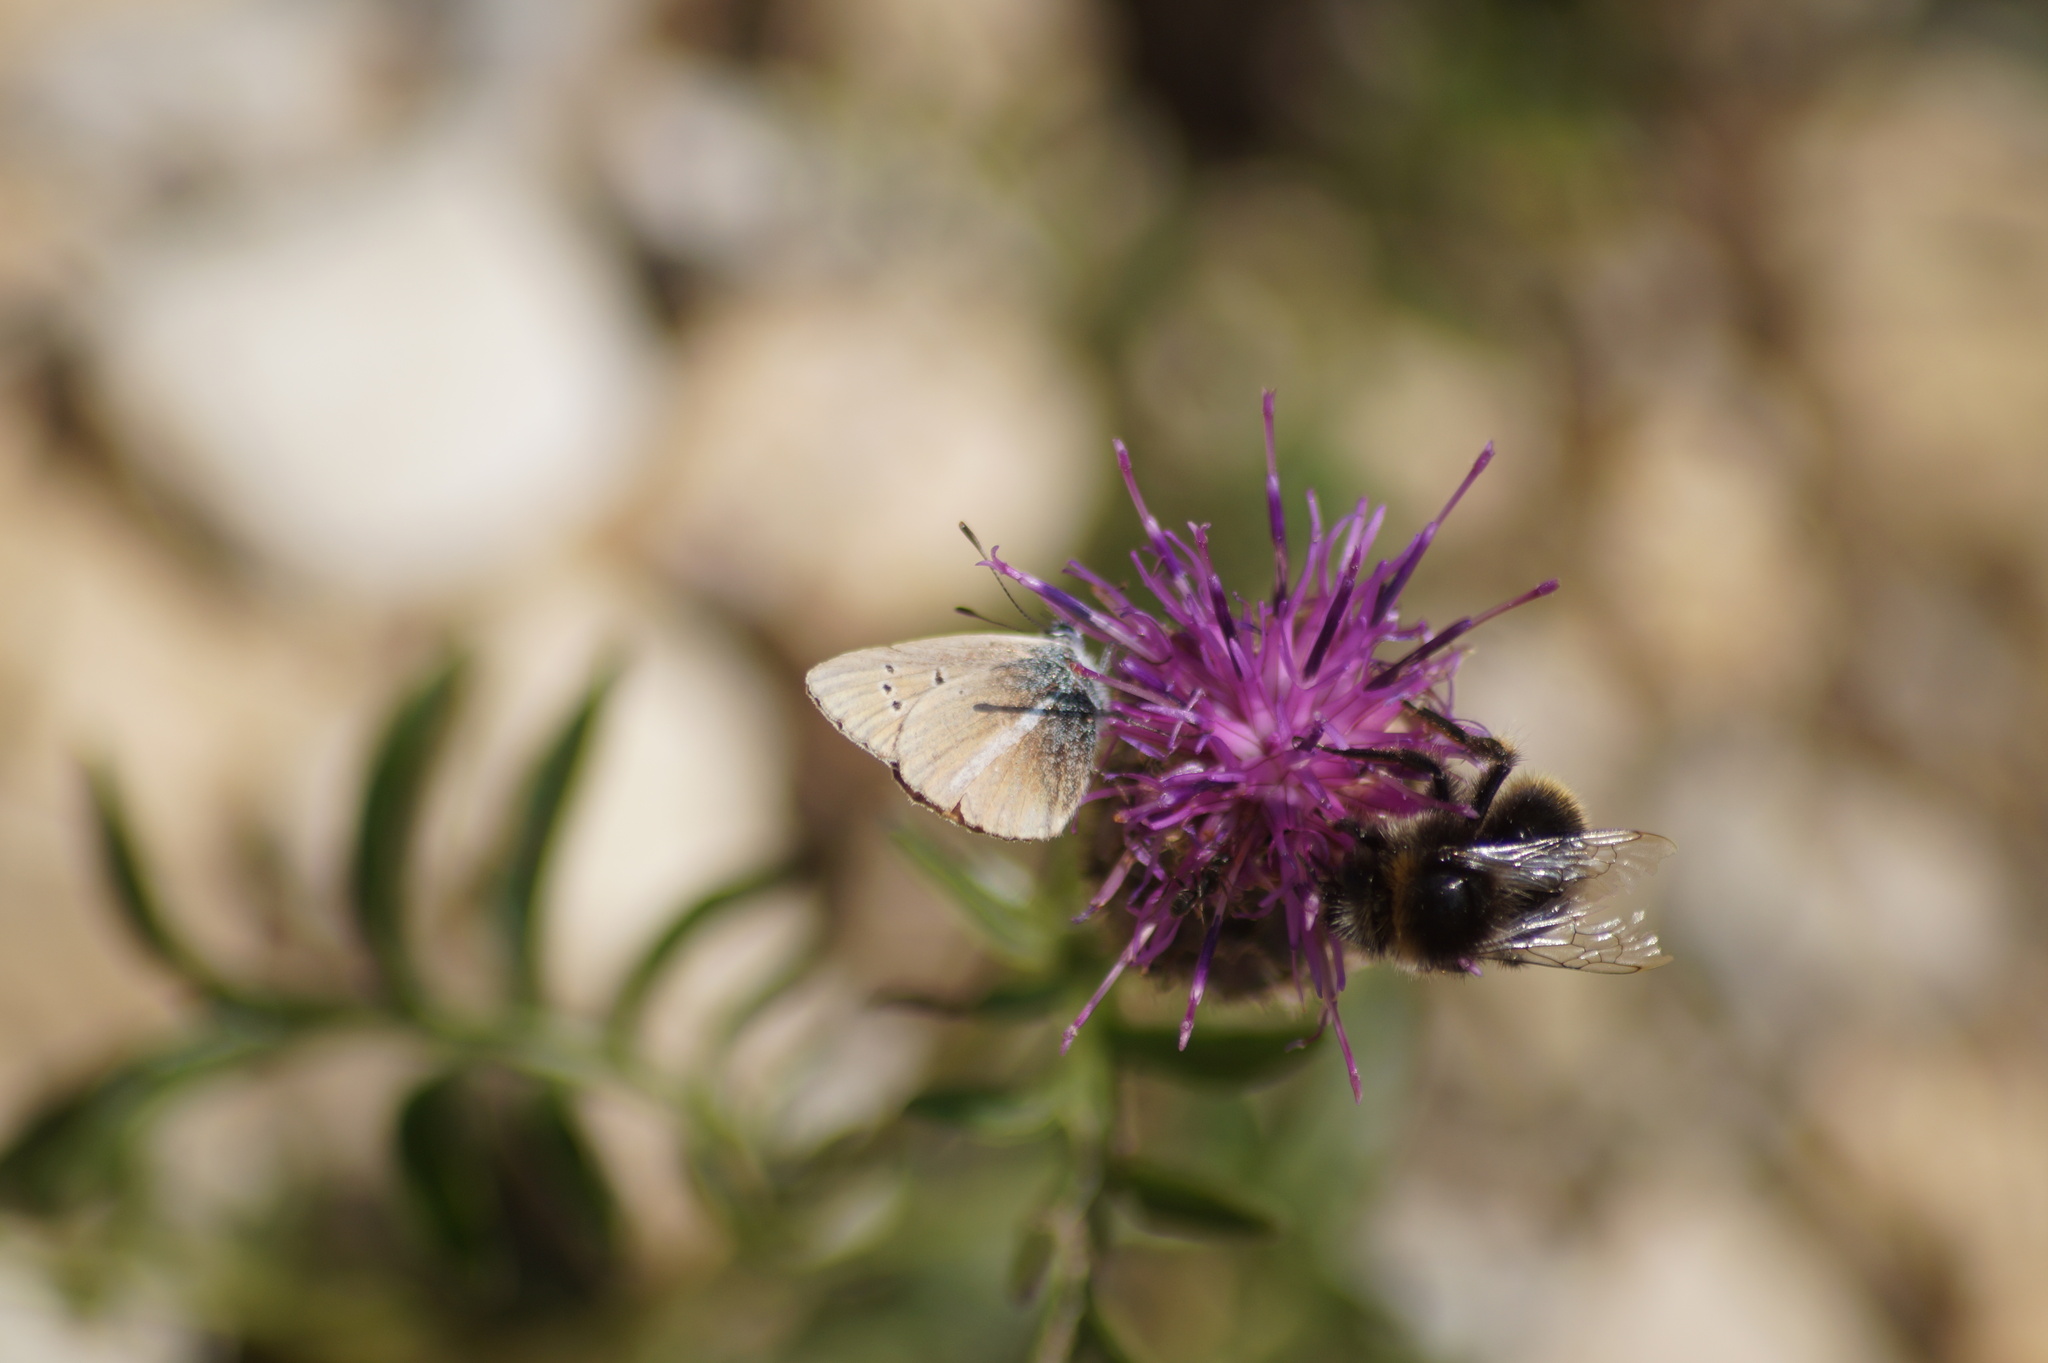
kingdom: Animalia
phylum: Arthropoda
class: Insecta
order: Lepidoptera
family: Lycaenidae
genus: Agrodiaetus
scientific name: Agrodiaetus damon
